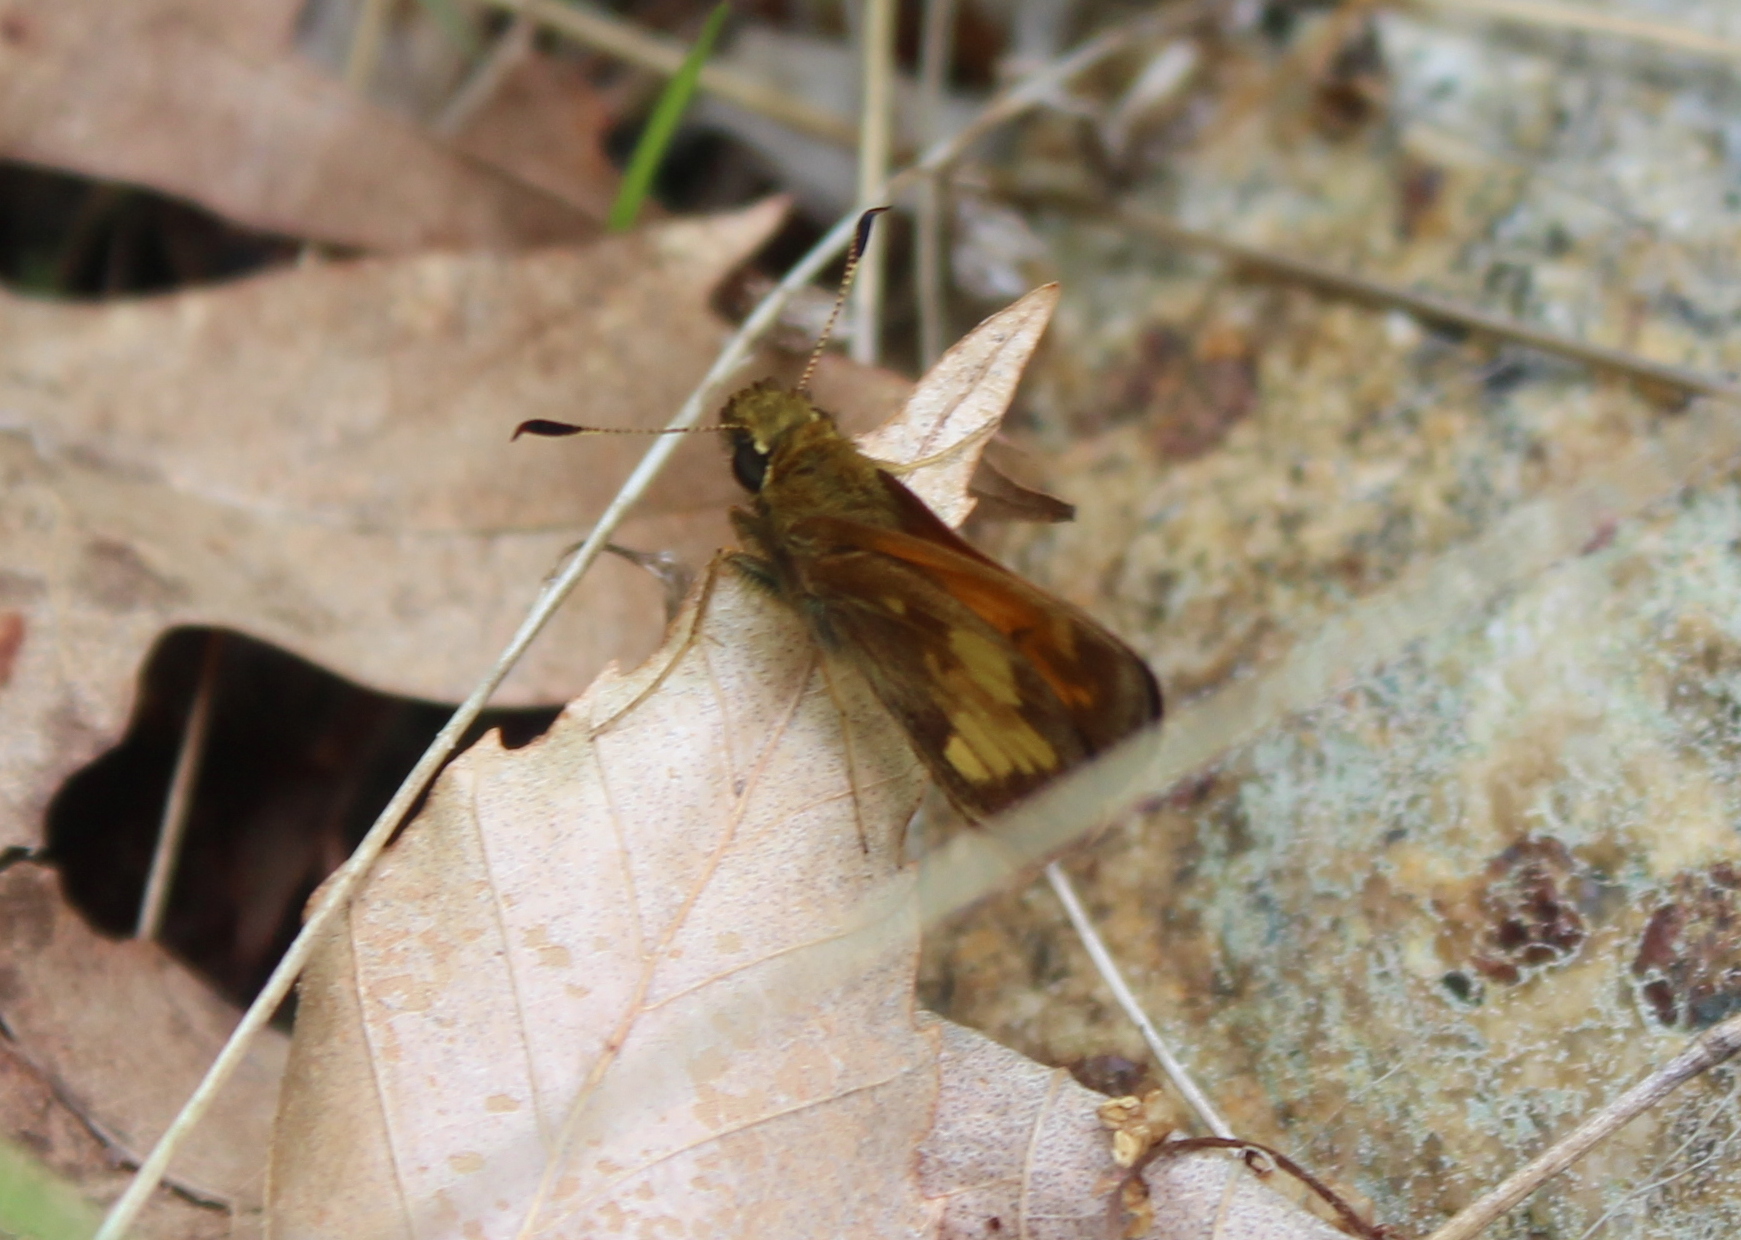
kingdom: Animalia
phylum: Arthropoda
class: Insecta
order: Lepidoptera
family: Hesperiidae
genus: Lon
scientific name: Lon hobomok
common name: Hobomok skipper
